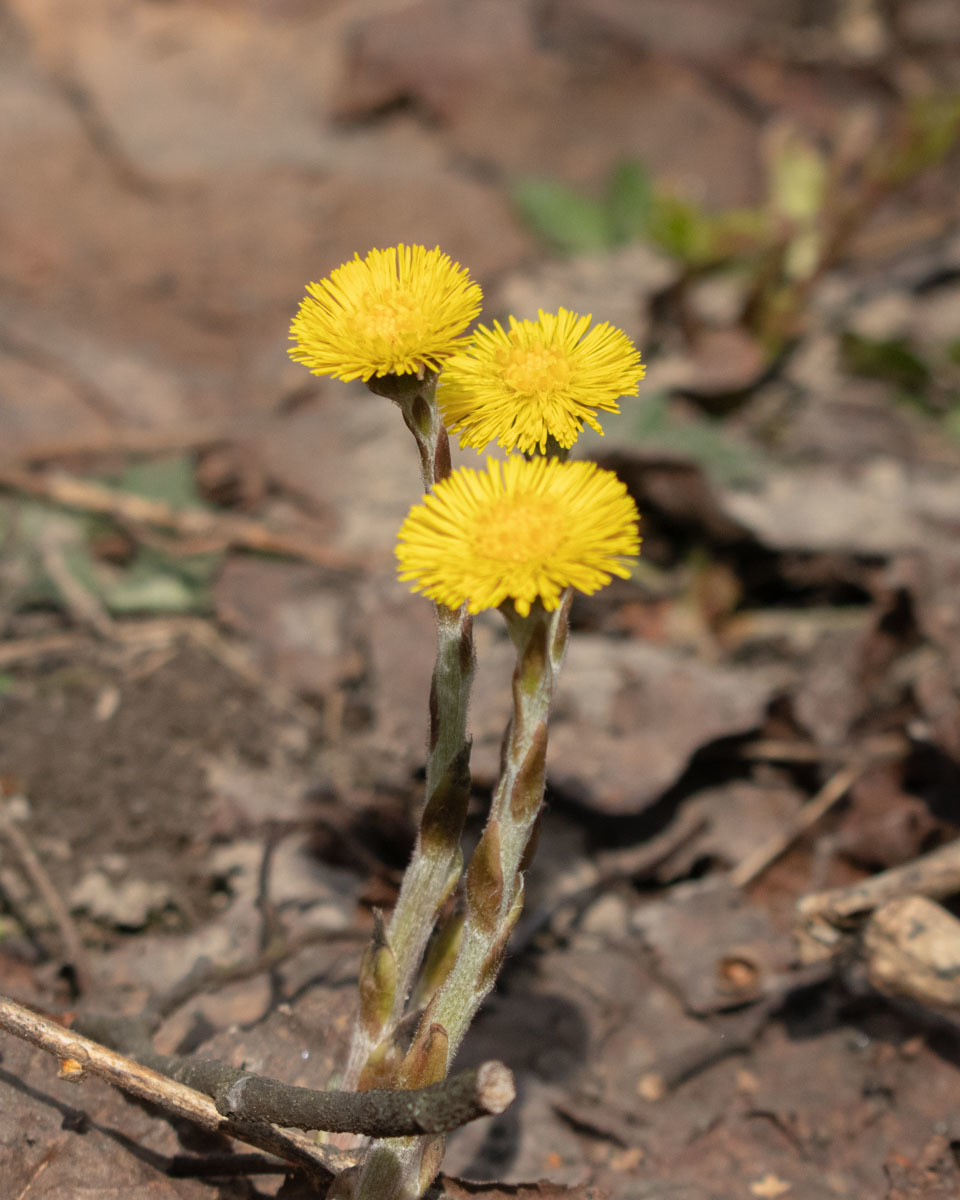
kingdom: Plantae
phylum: Tracheophyta
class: Magnoliopsida
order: Asterales
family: Asteraceae
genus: Tussilago
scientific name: Tussilago farfara
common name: Coltsfoot
